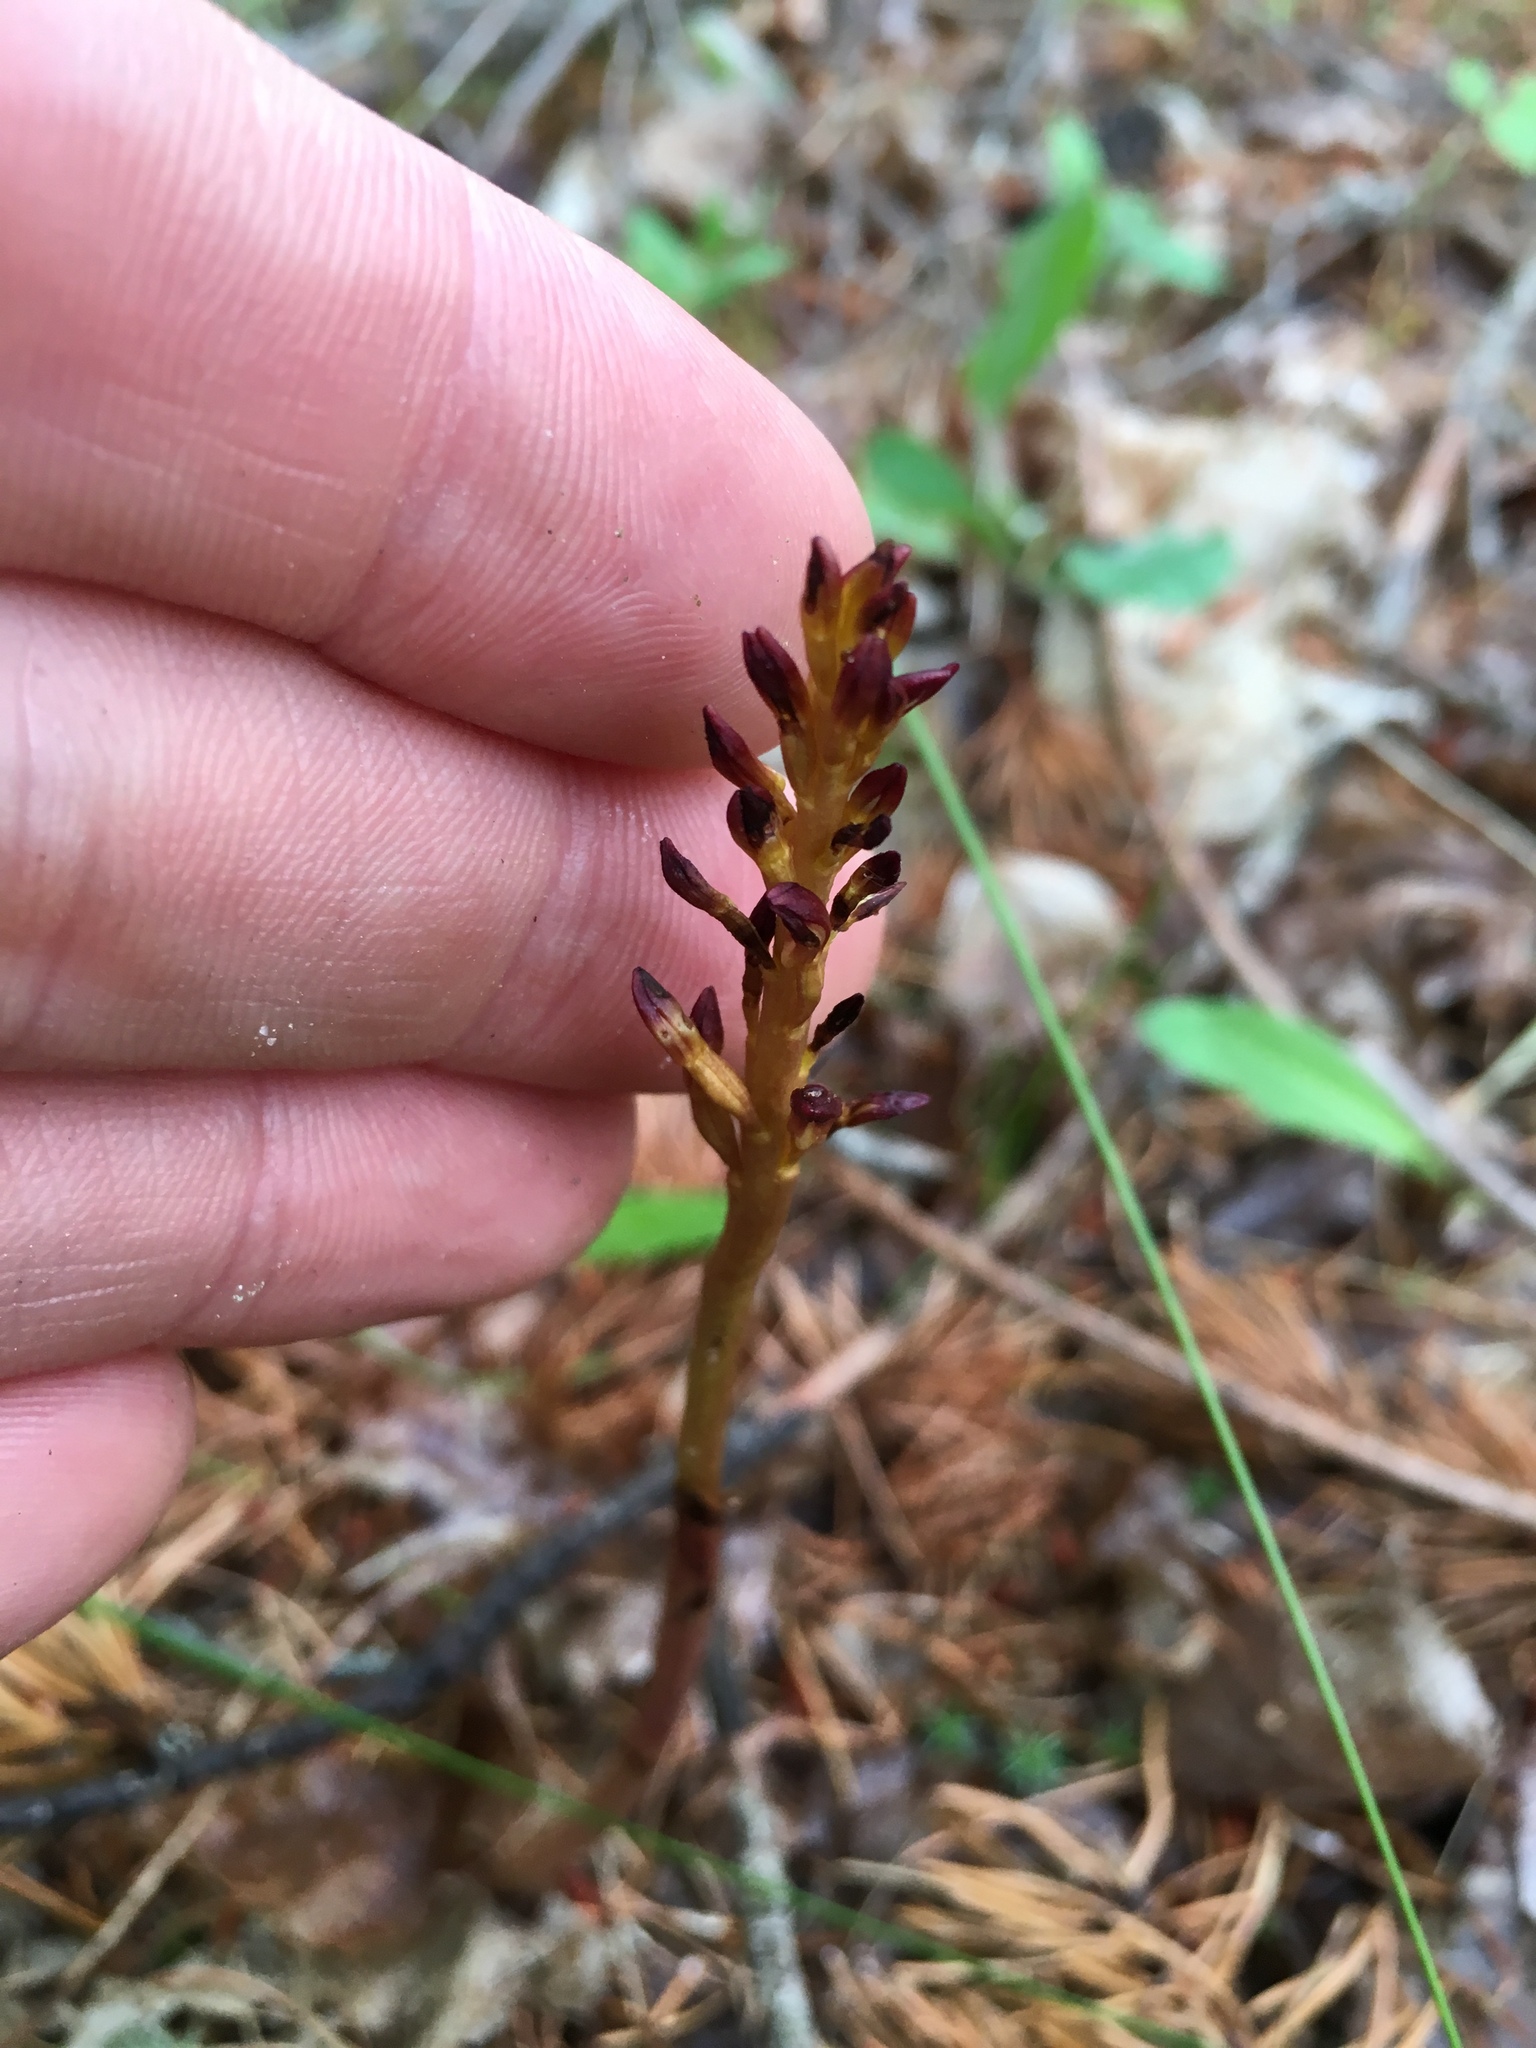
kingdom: Plantae
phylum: Tracheophyta
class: Liliopsida
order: Asparagales
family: Orchidaceae
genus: Corallorhiza
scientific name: Corallorhiza maculata
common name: Spotted coralroot
